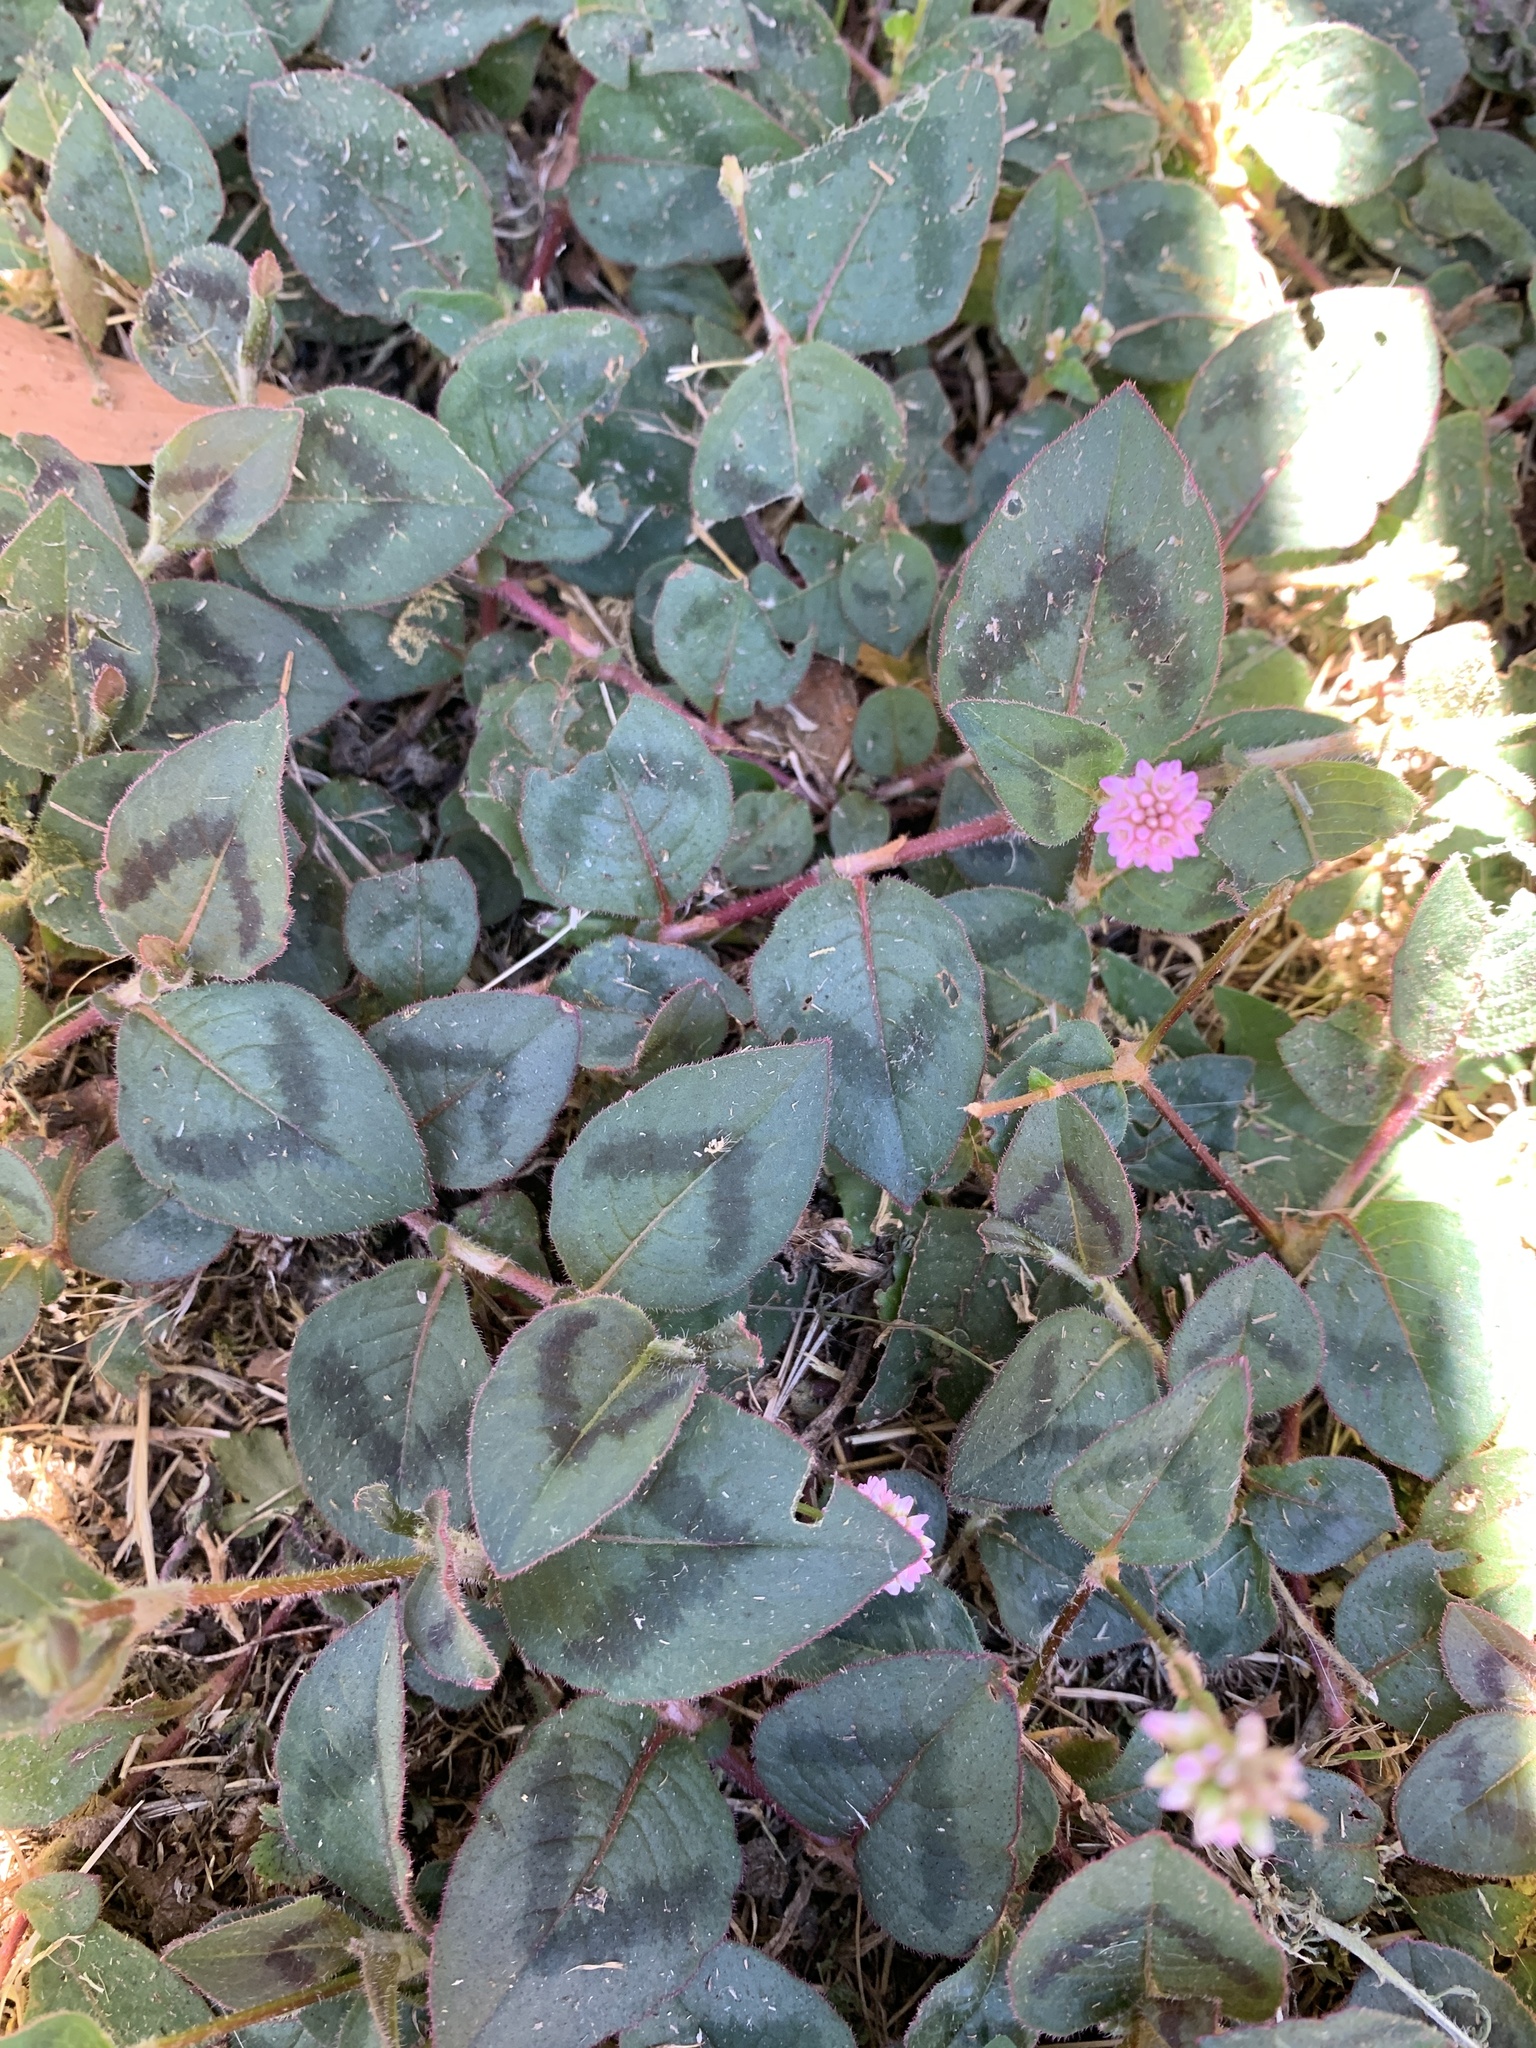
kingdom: Plantae
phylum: Tracheophyta
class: Magnoliopsida
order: Caryophyllales
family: Polygonaceae
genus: Persicaria
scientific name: Persicaria capitata
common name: Pinkhead smartweed
